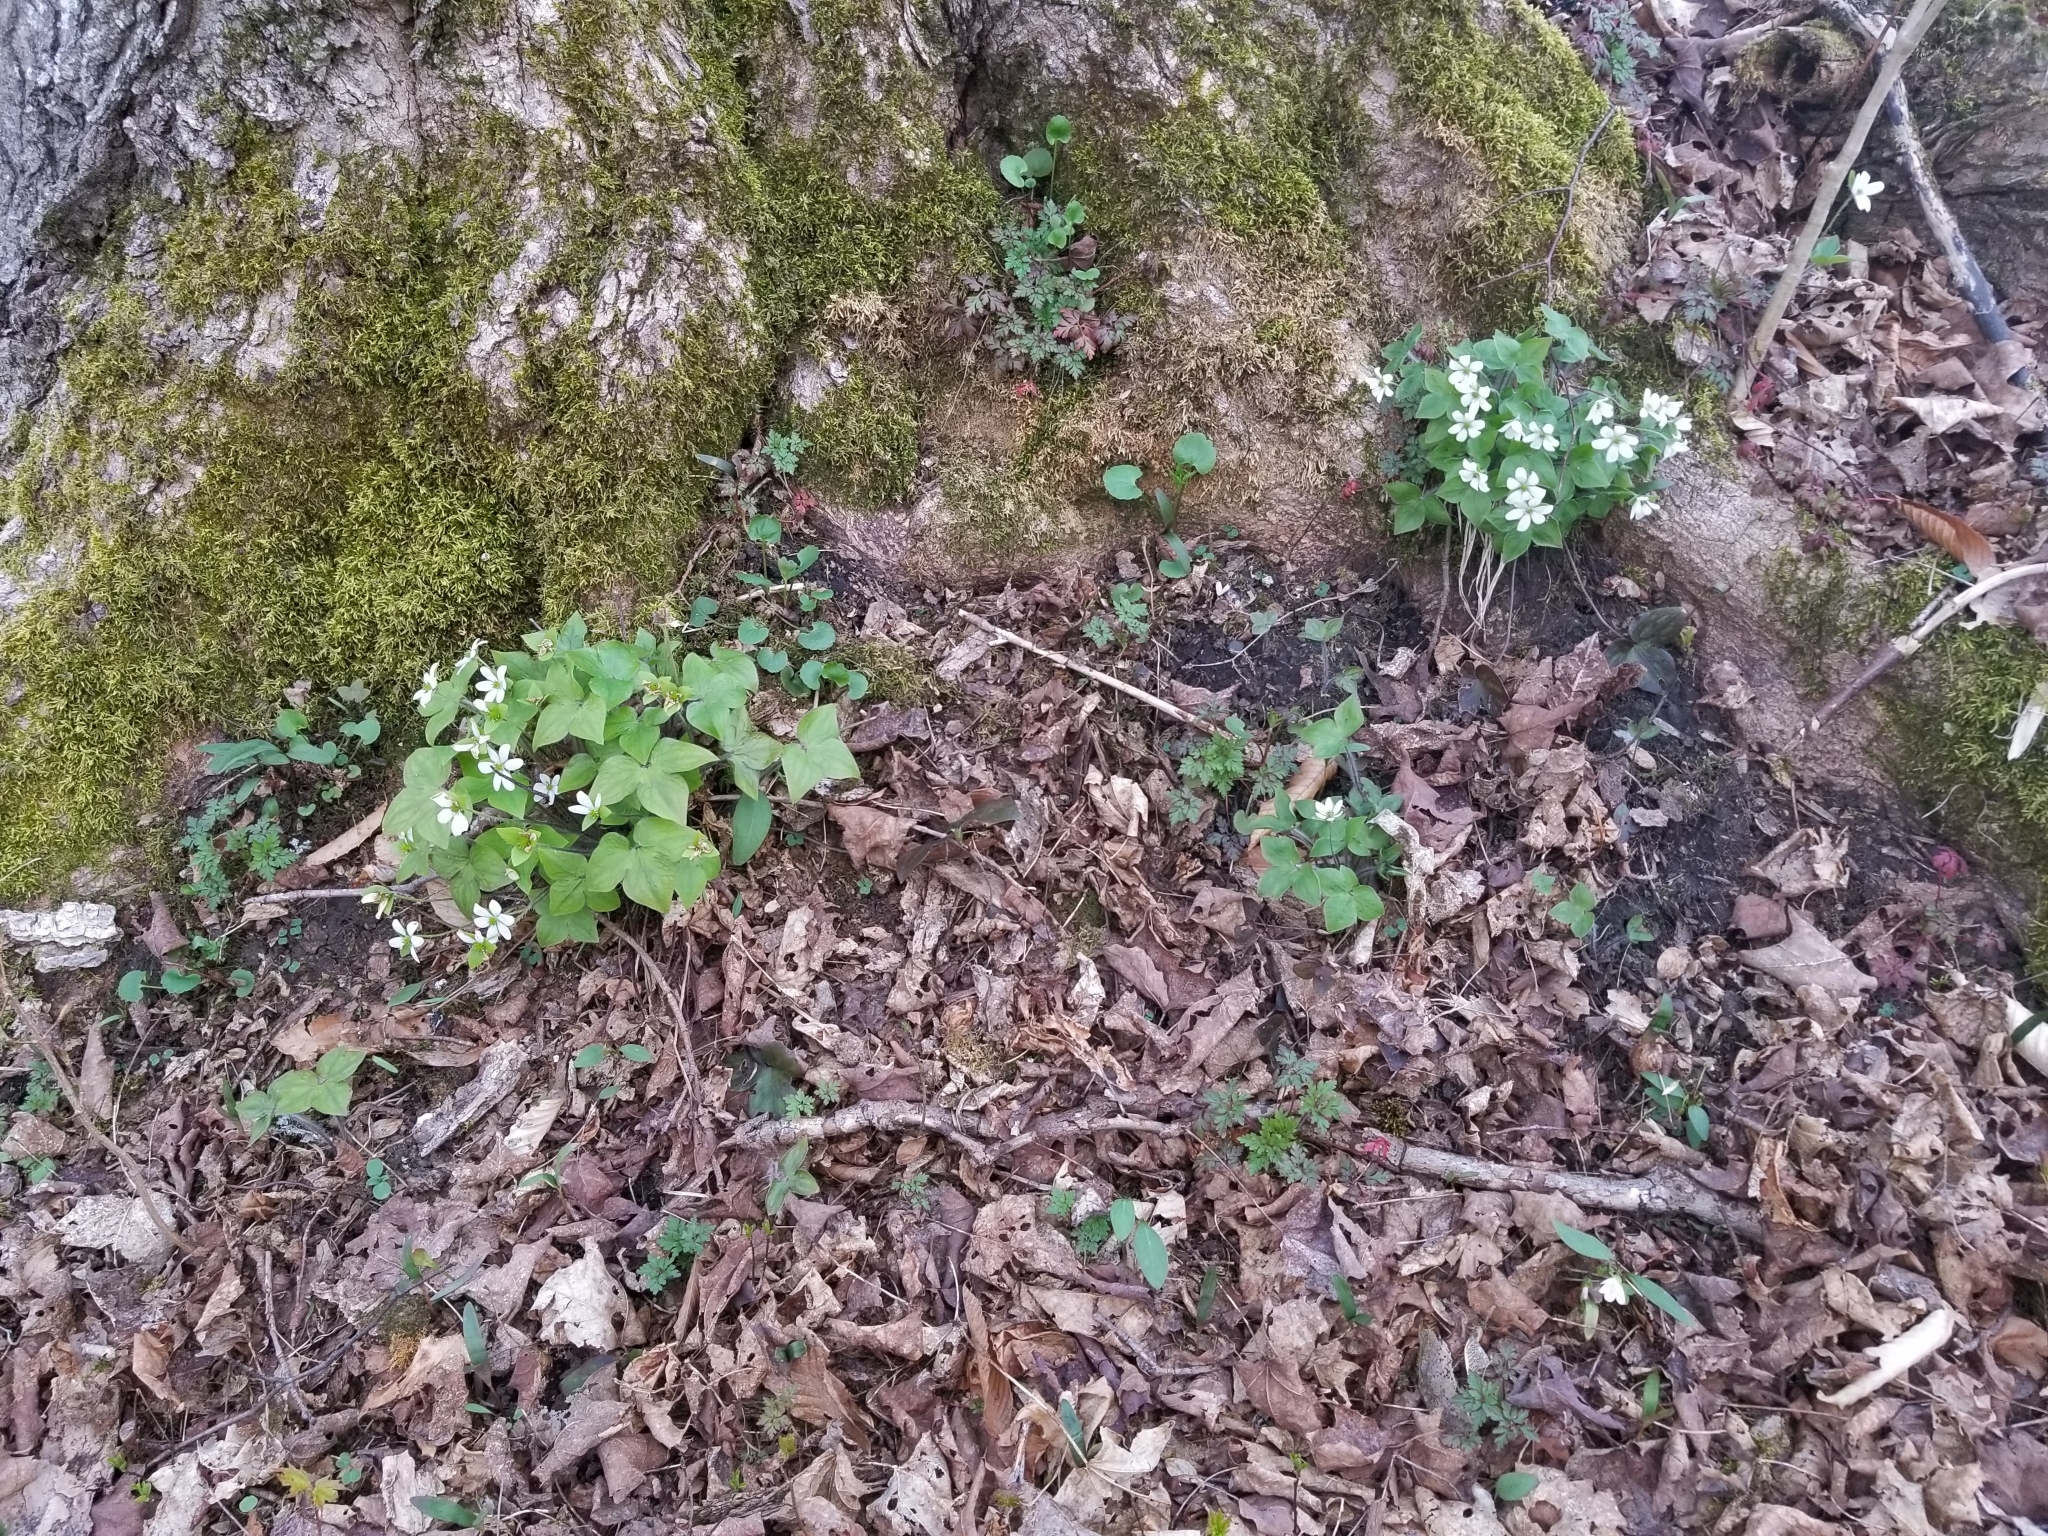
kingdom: Plantae
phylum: Tracheophyta
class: Magnoliopsida
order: Ranunculales
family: Ranunculaceae
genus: Hepatica
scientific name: Hepatica acutiloba
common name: Sharp-lobed hepatica
